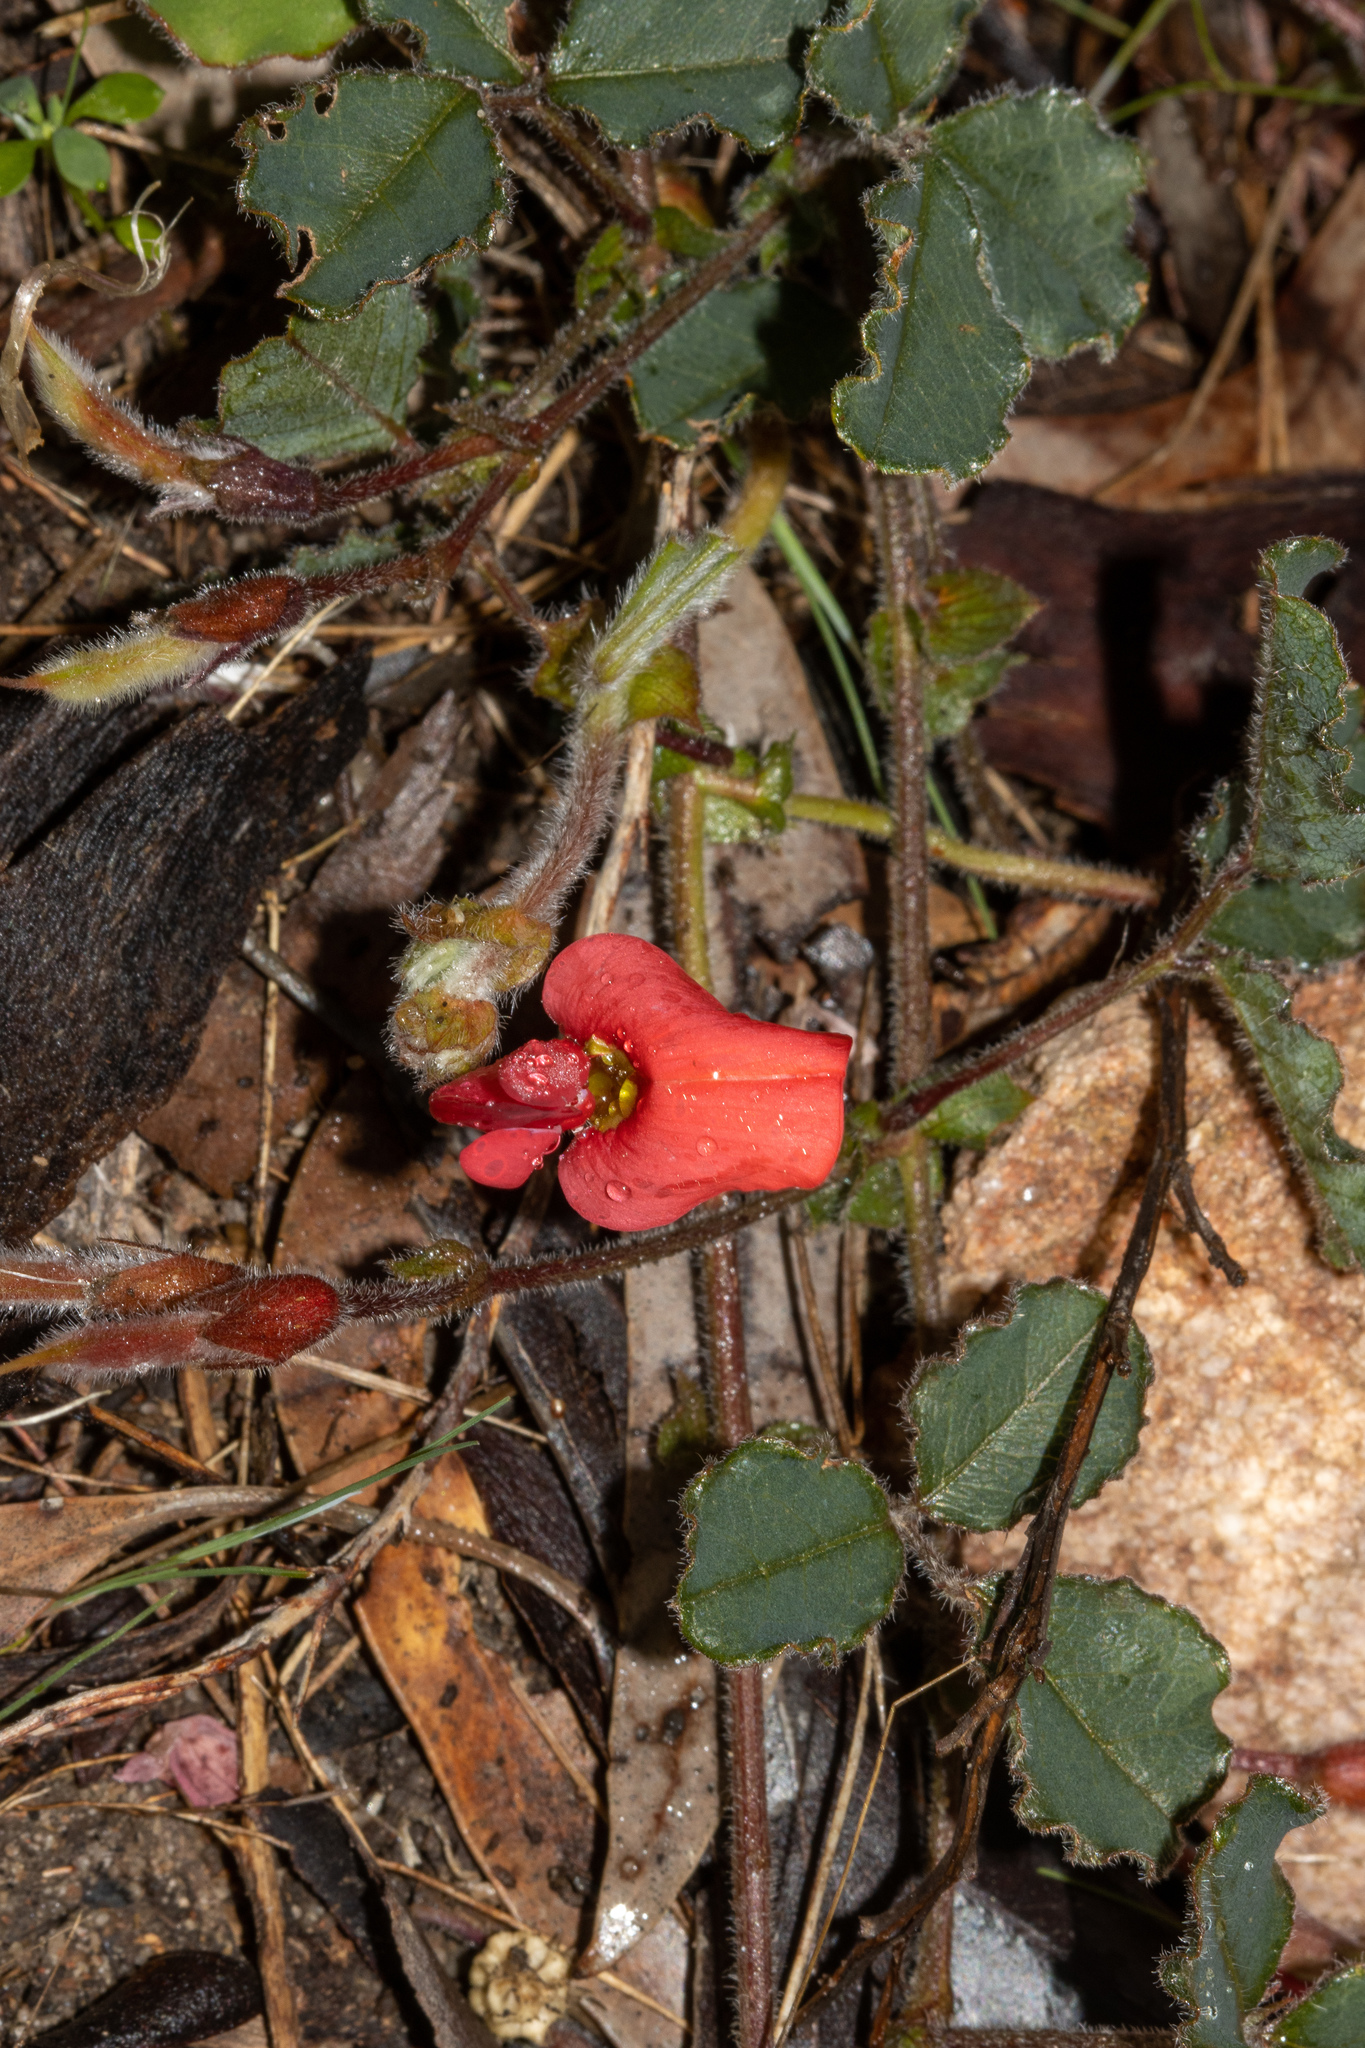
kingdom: Plantae
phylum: Tracheophyta
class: Magnoliopsida
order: Fabales
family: Fabaceae
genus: Kennedia
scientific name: Kennedia prostrata
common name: Running-postman
